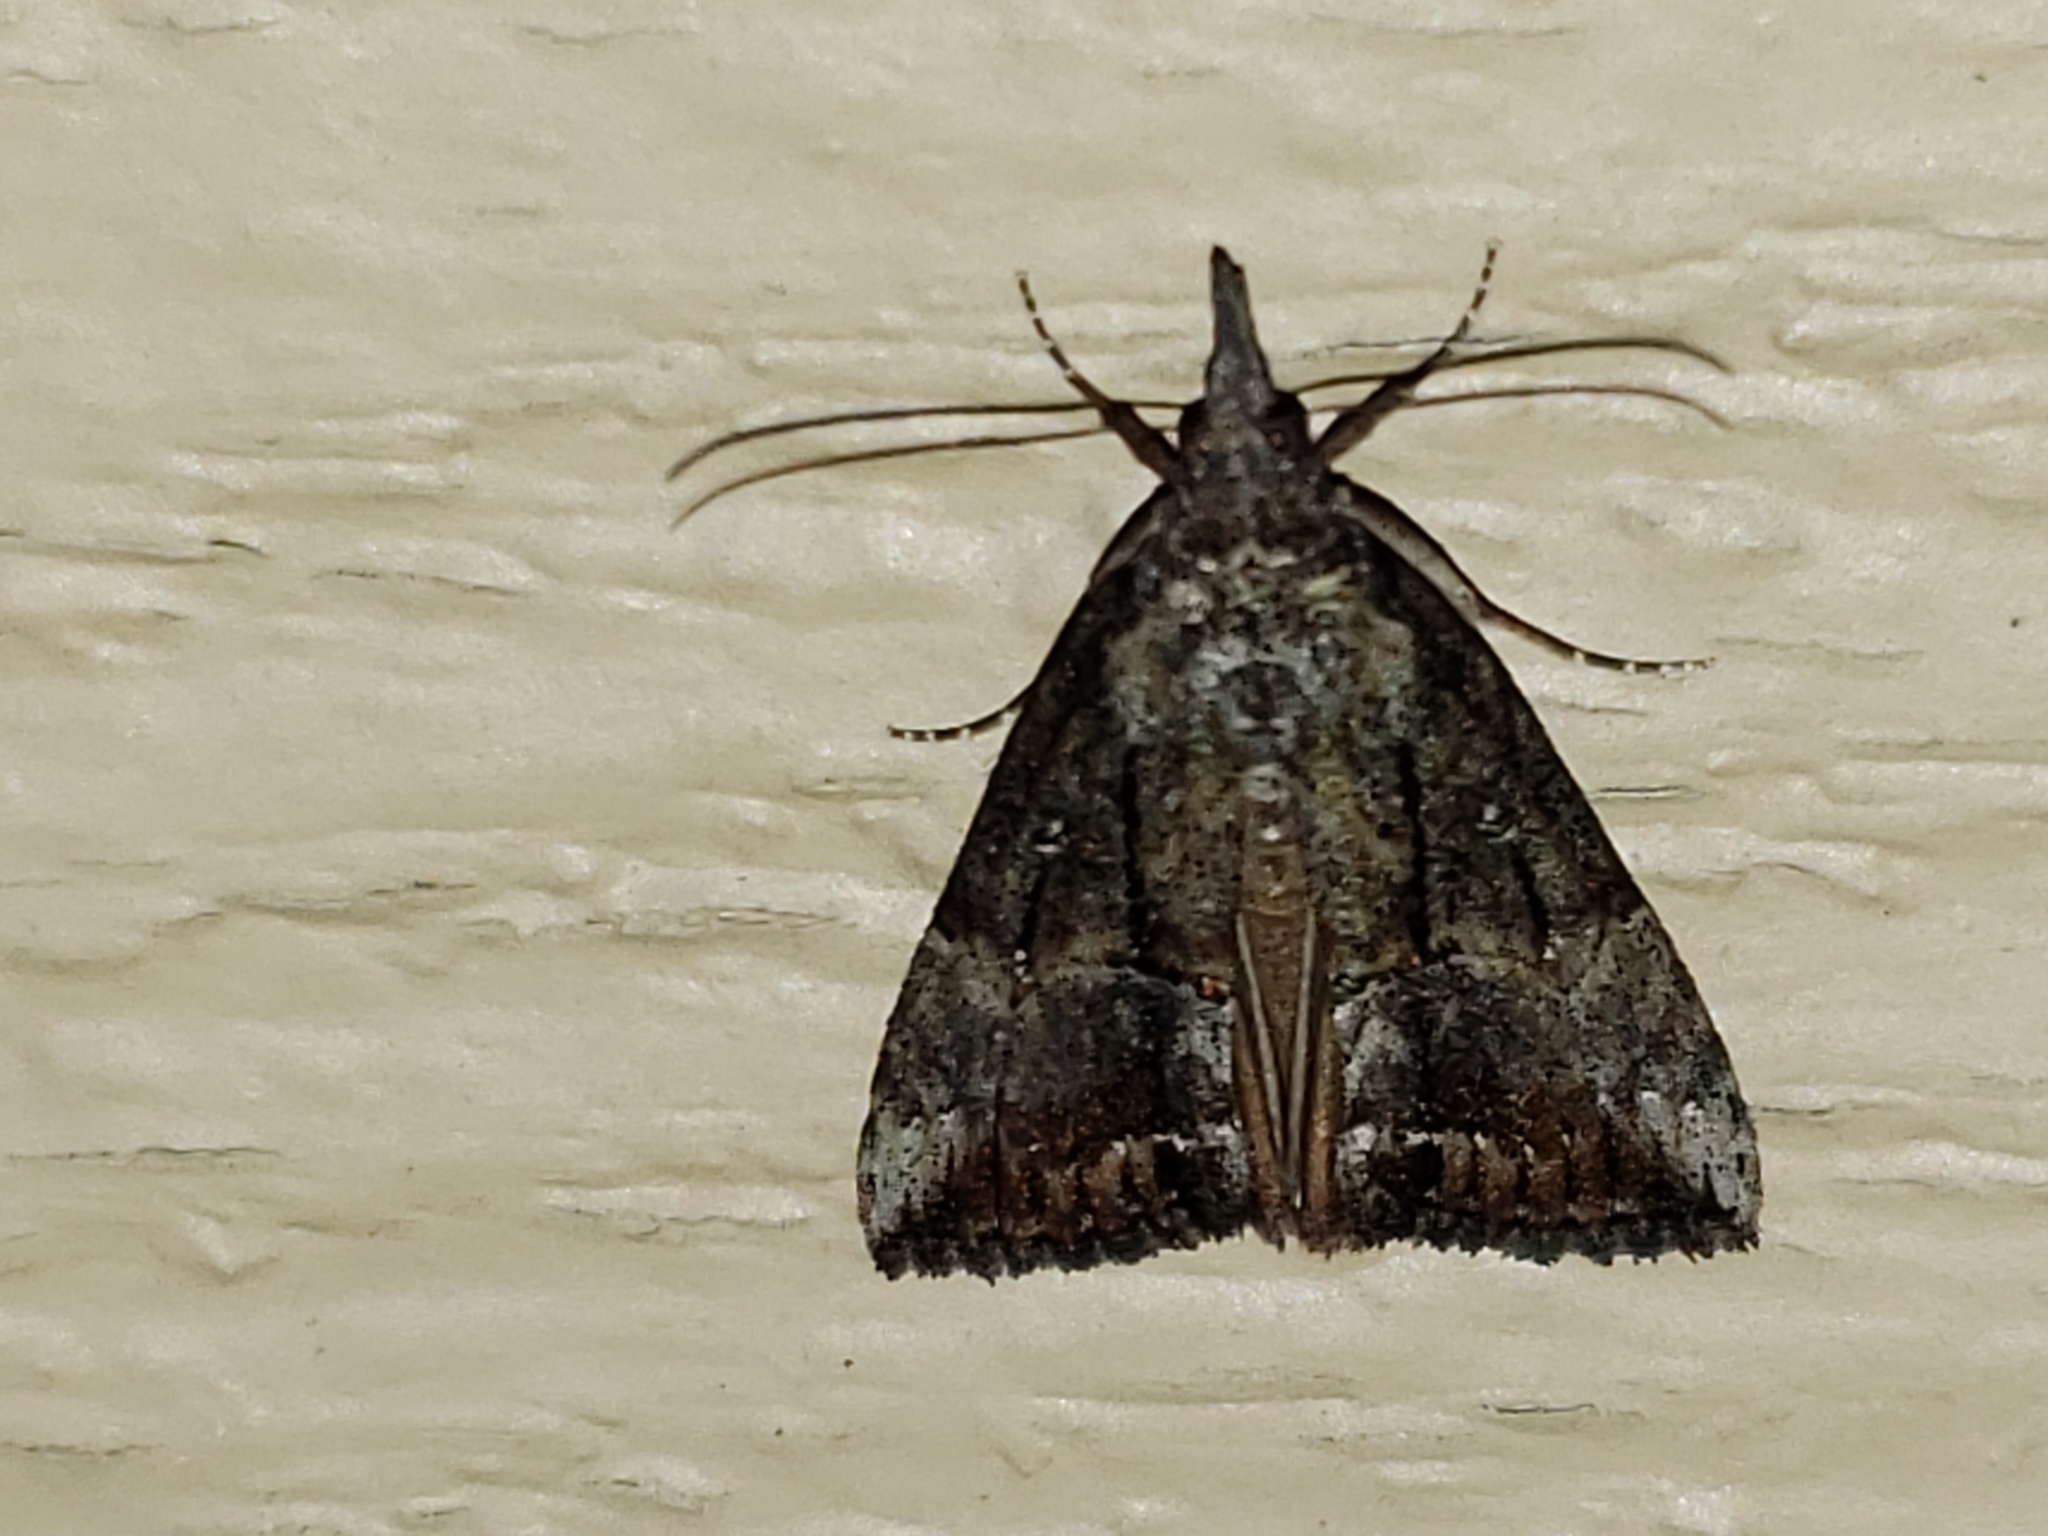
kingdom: Animalia
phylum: Arthropoda
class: Insecta
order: Lepidoptera
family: Erebidae
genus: Hypena
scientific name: Hypena scabra
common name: Green cloverworm
